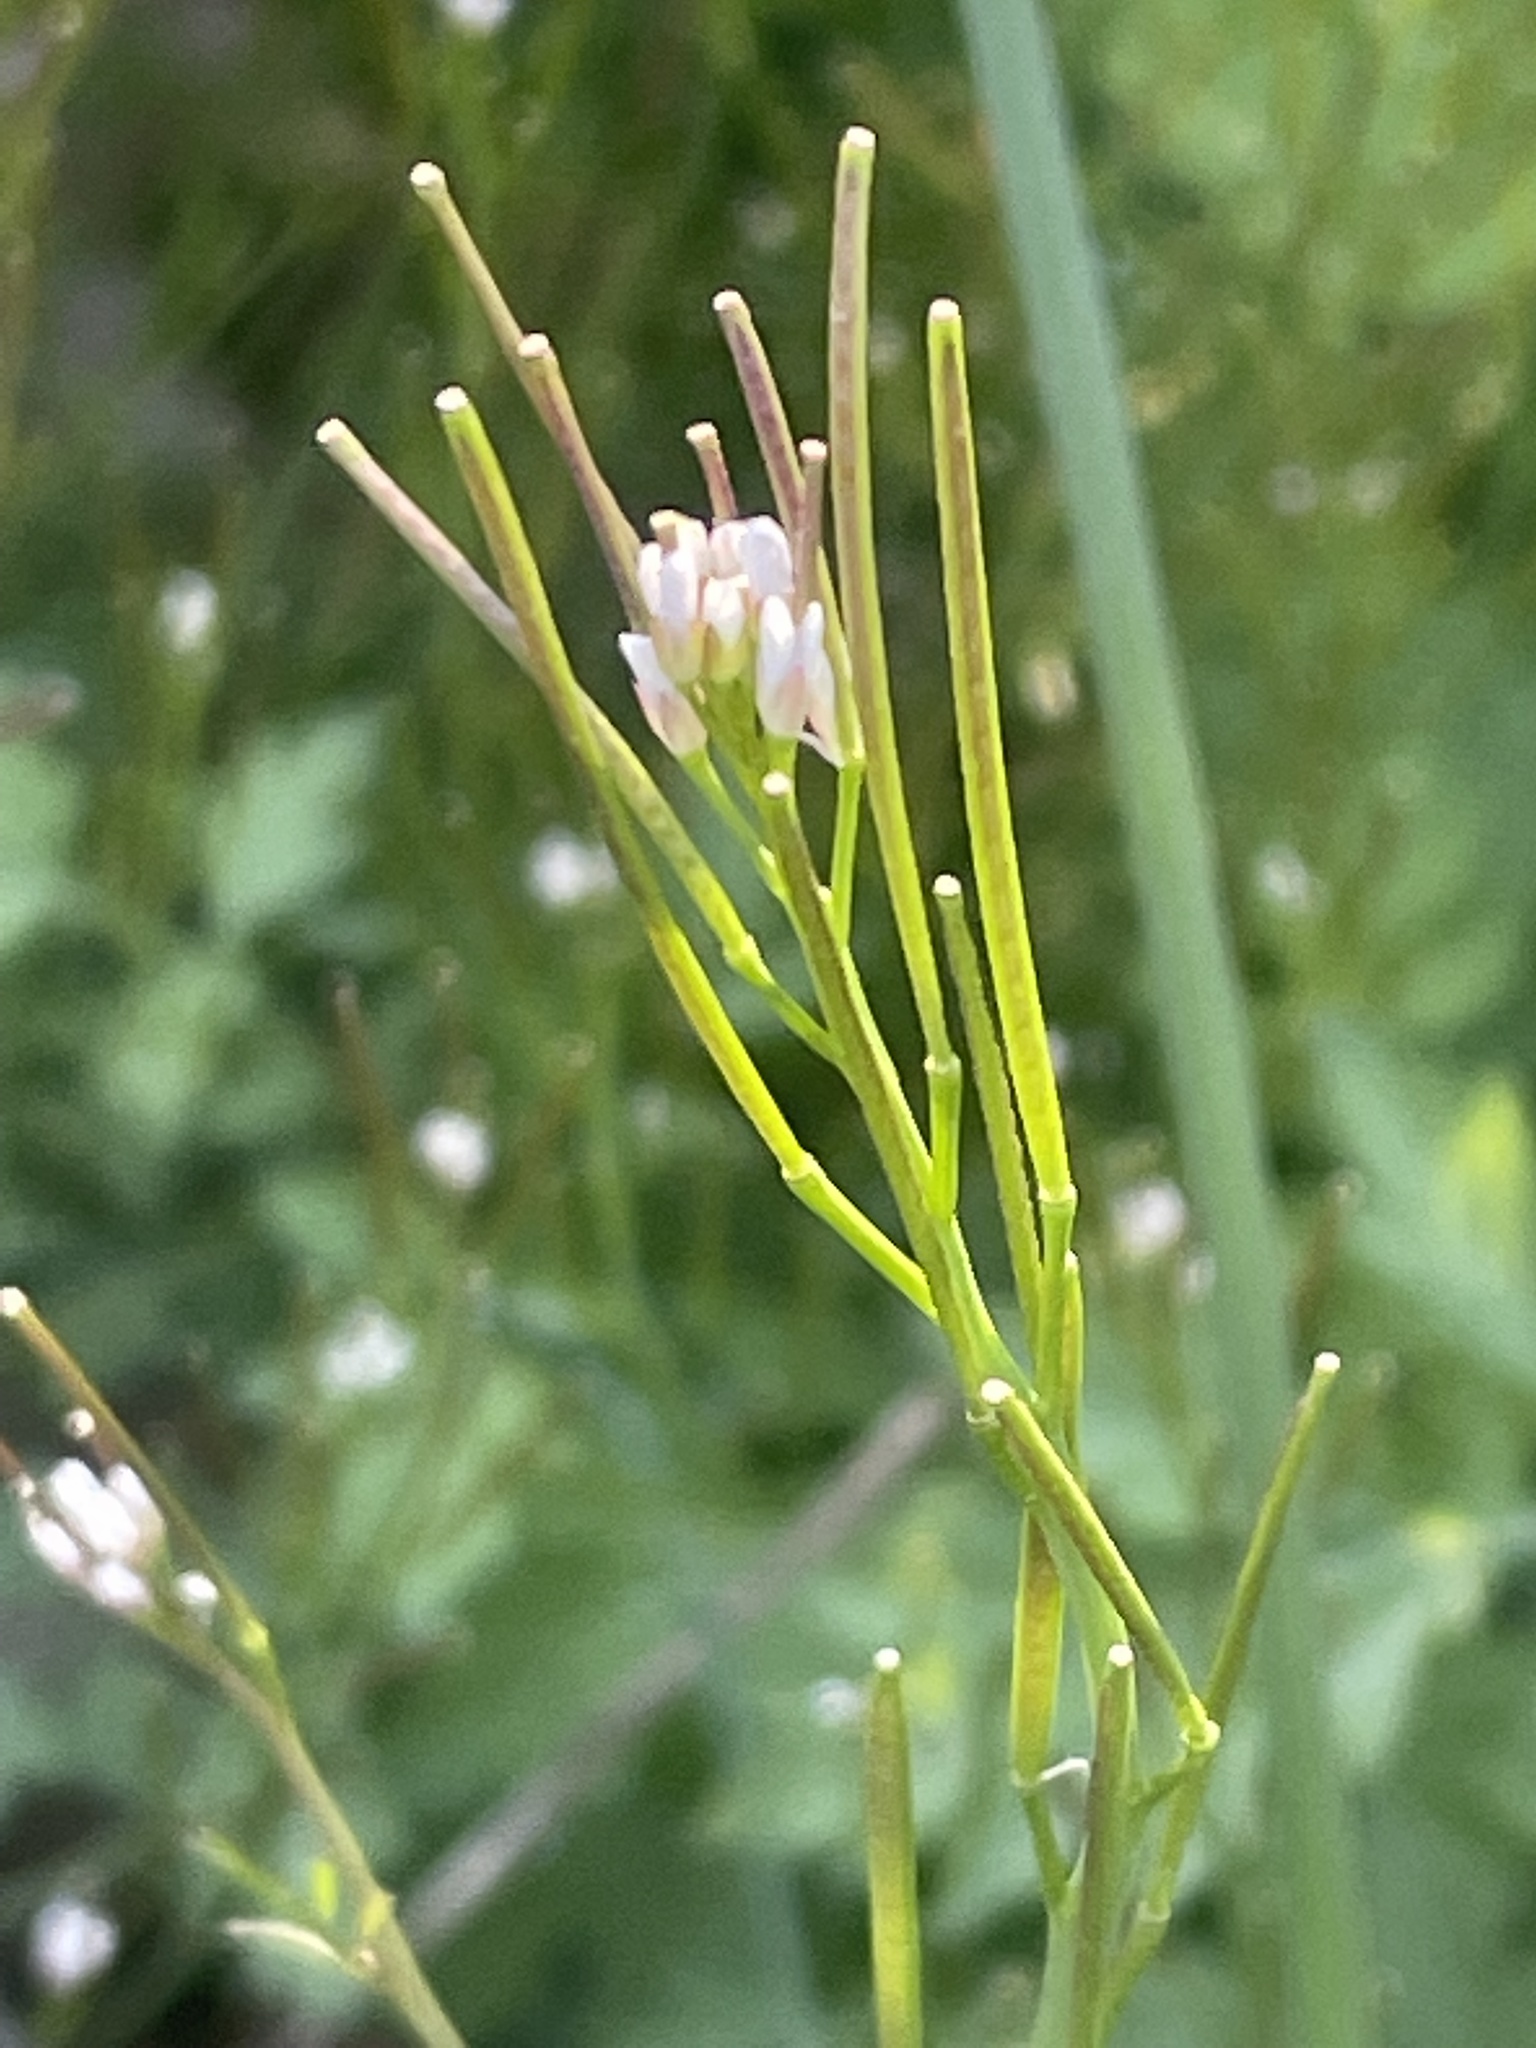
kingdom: Plantae
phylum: Tracheophyta
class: Magnoliopsida
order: Brassicales
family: Brassicaceae
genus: Cardamine
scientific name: Cardamine hirsuta
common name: Hairy bittercress
